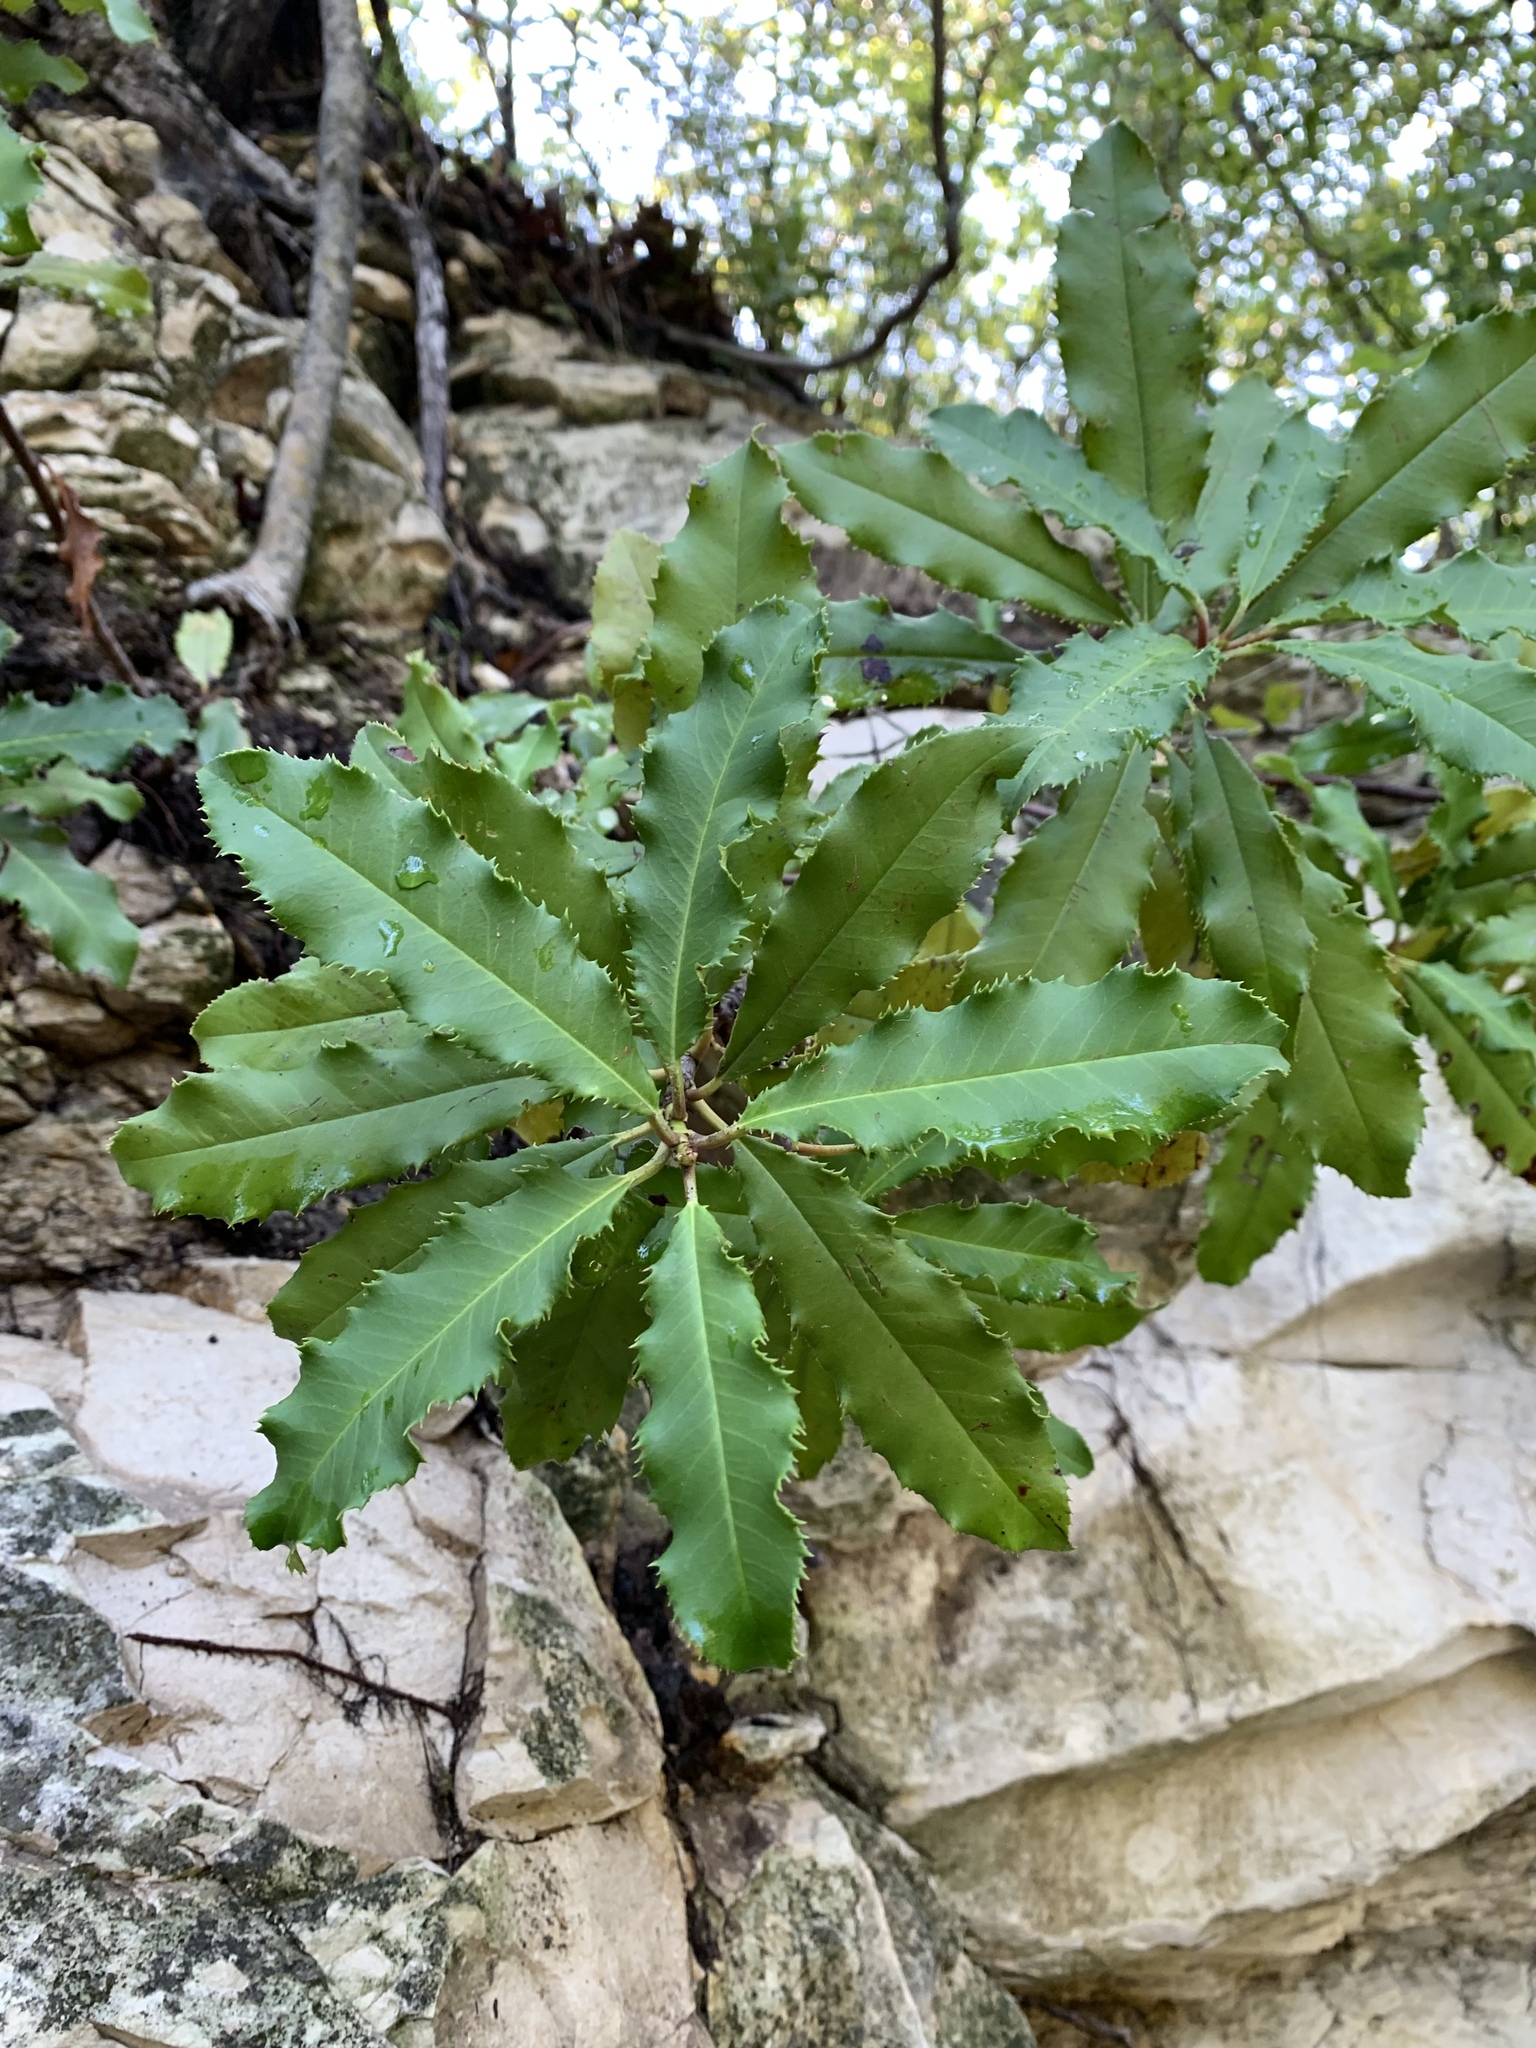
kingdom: Plantae
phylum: Tracheophyta
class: Magnoliopsida
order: Rosales
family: Rosaceae
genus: Photinia
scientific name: Photinia serratifolia
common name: Taiwanese photinia
